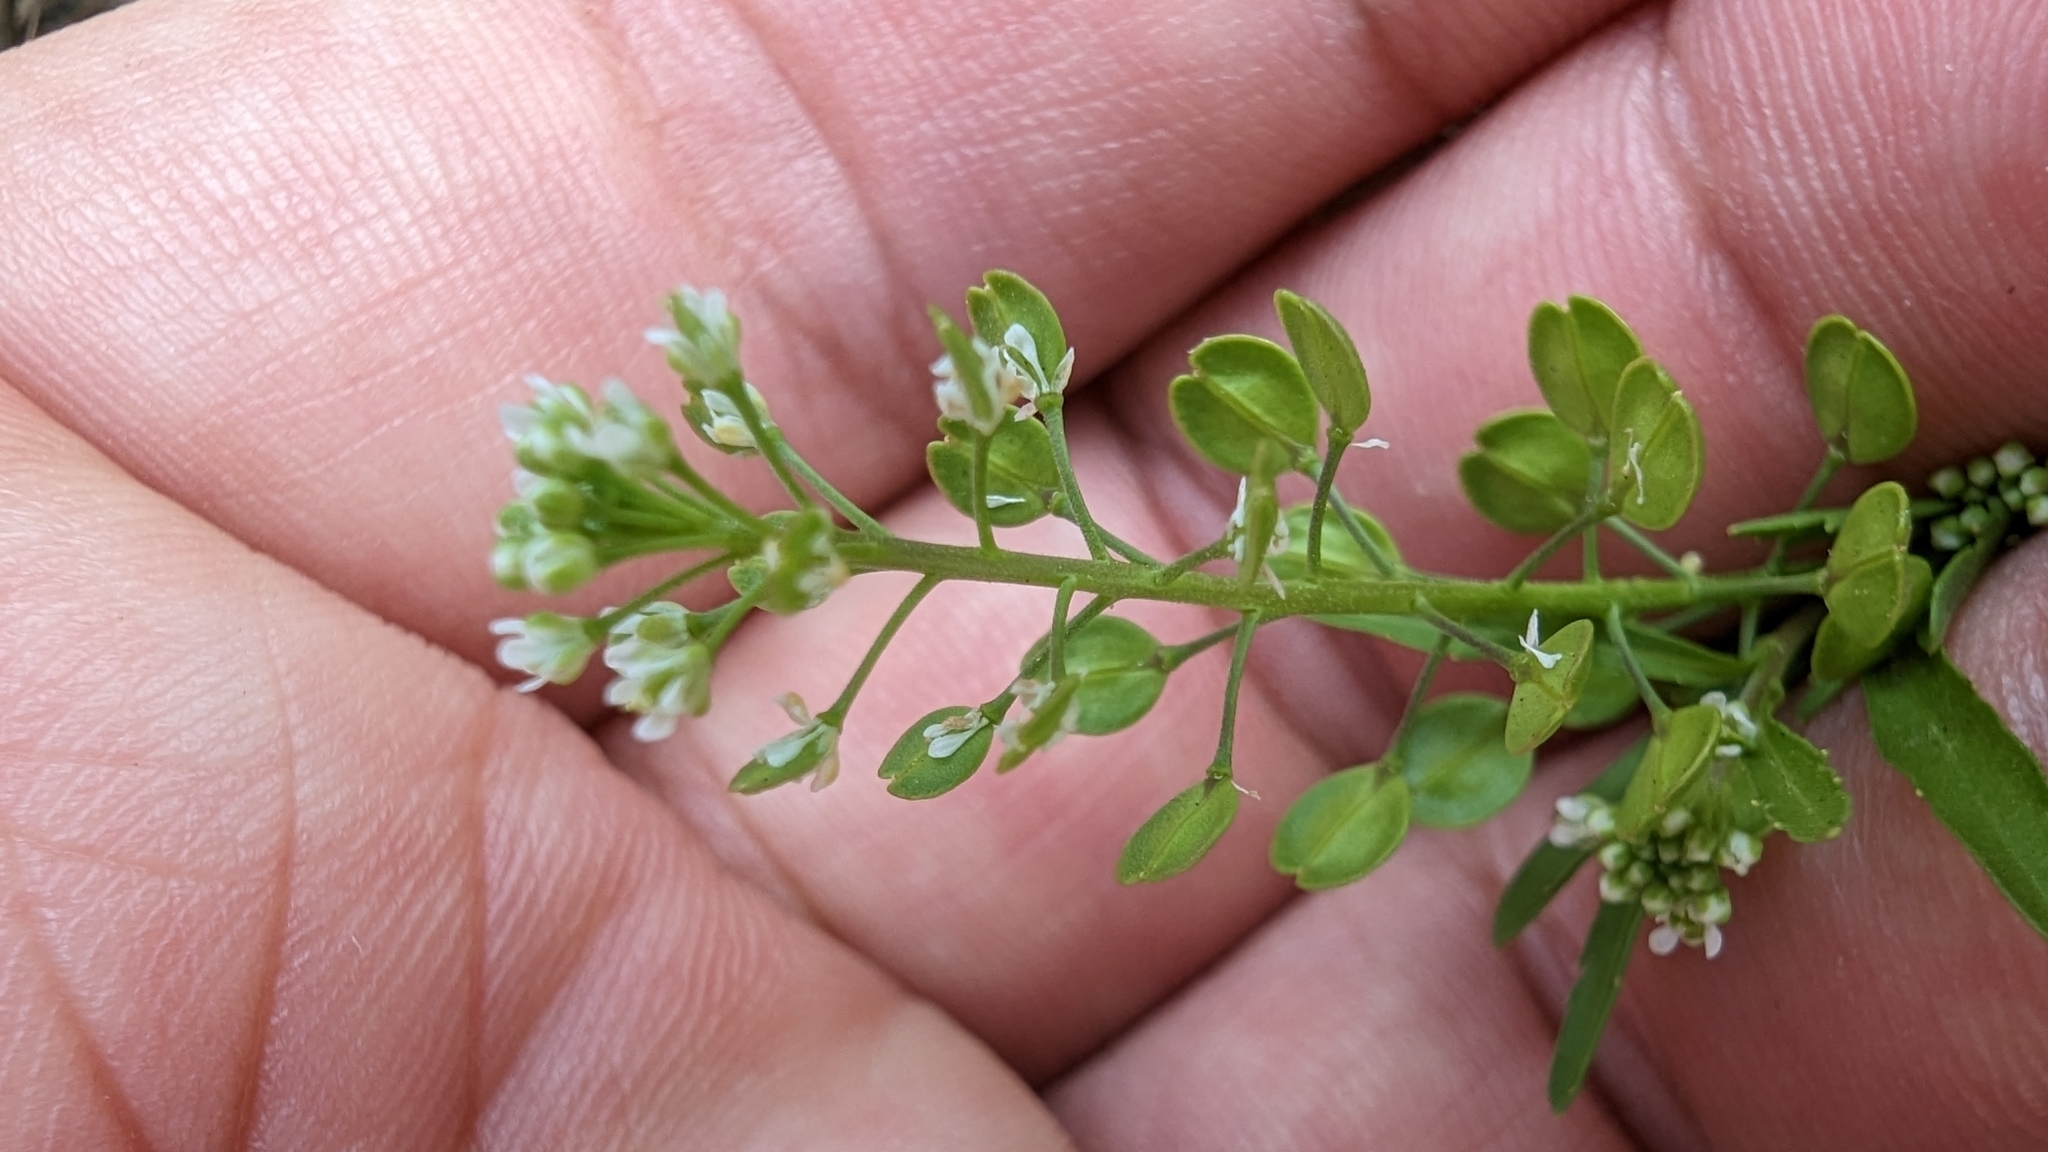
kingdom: Plantae
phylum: Tracheophyta
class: Magnoliopsida
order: Brassicales
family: Brassicaceae
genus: Lepidium
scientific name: Lepidium virginicum
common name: Least pepperwort
